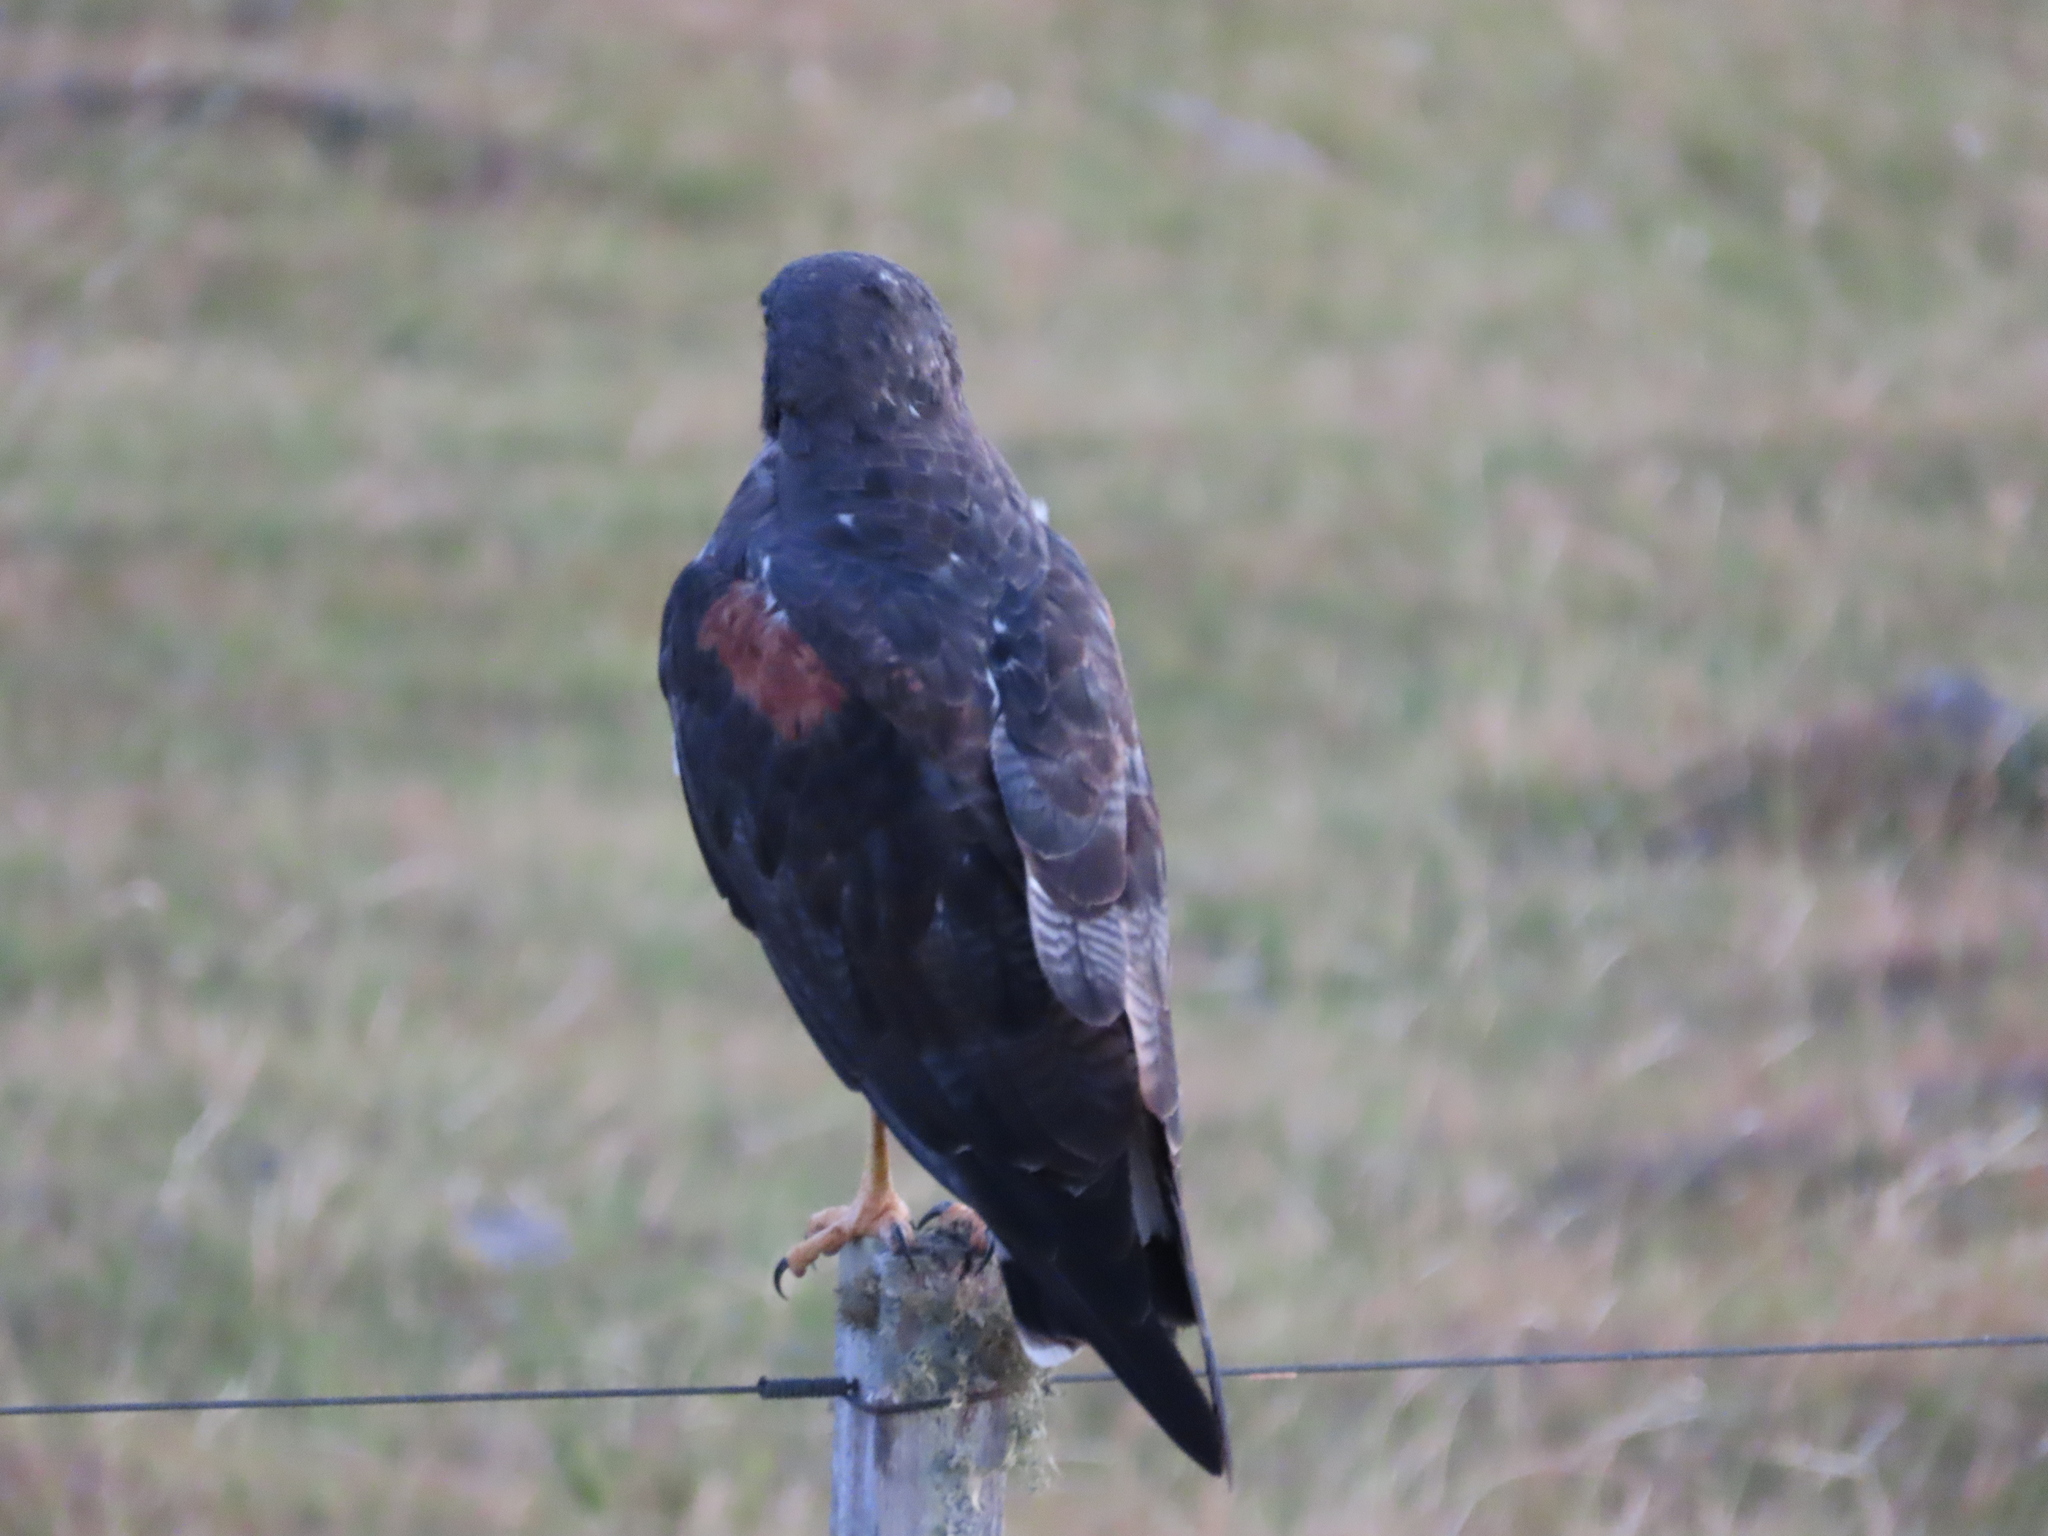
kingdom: Animalia
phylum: Chordata
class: Aves
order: Accipitriformes
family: Accipitridae
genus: Buteo
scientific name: Buteo albicaudatus
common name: White-tailed hawk
